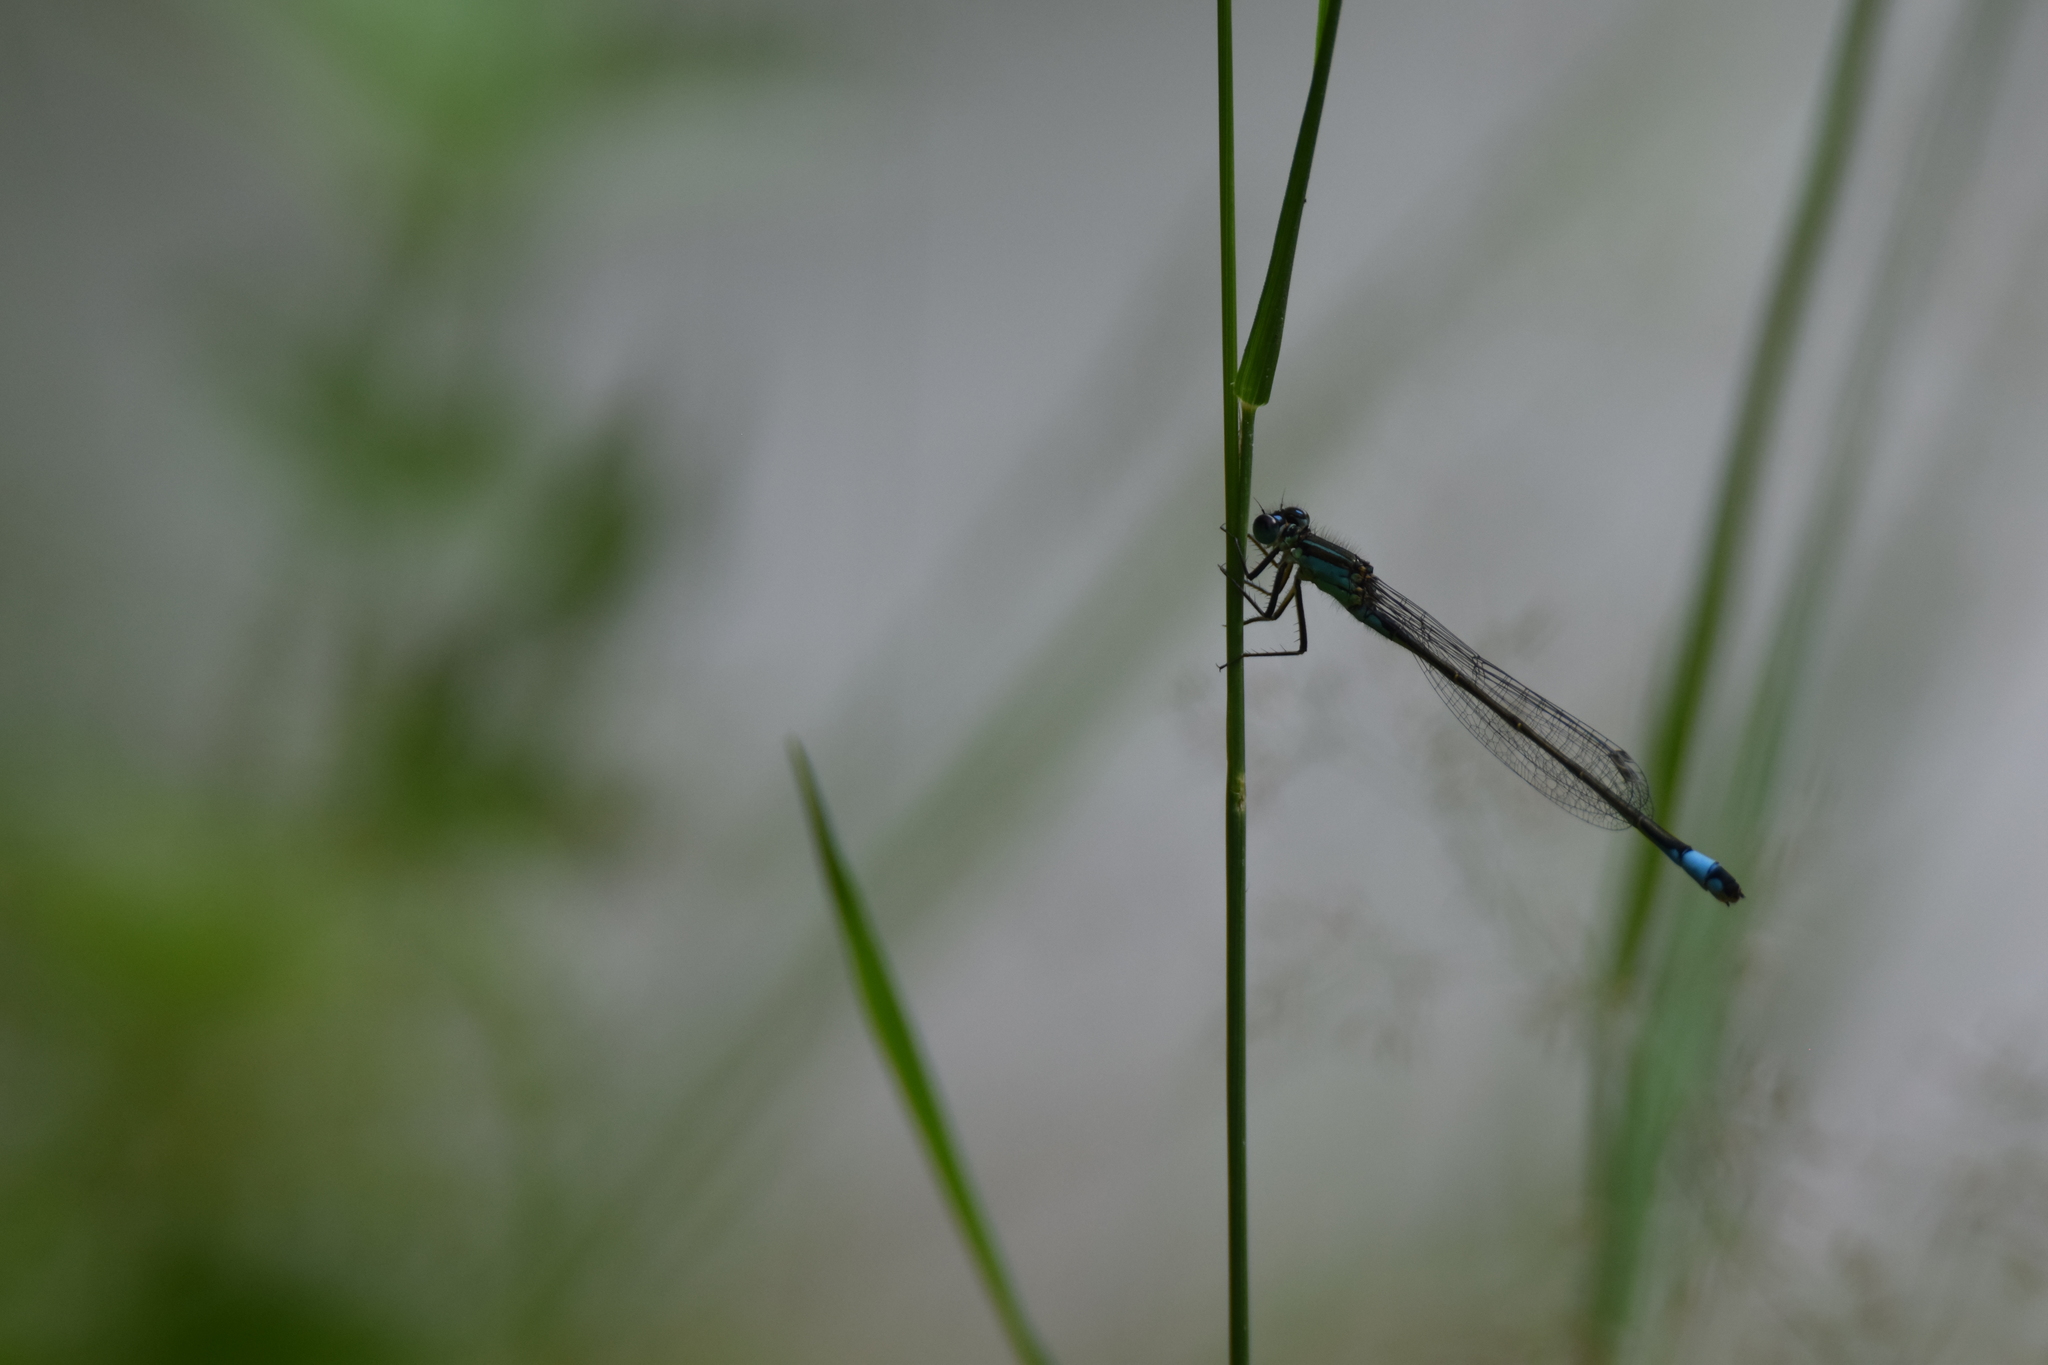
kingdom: Animalia
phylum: Arthropoda
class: Insecta
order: Odonata
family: Coenagrionidae
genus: Ischnura
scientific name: Ischnura elegans
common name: Blue-tailed damselfly
